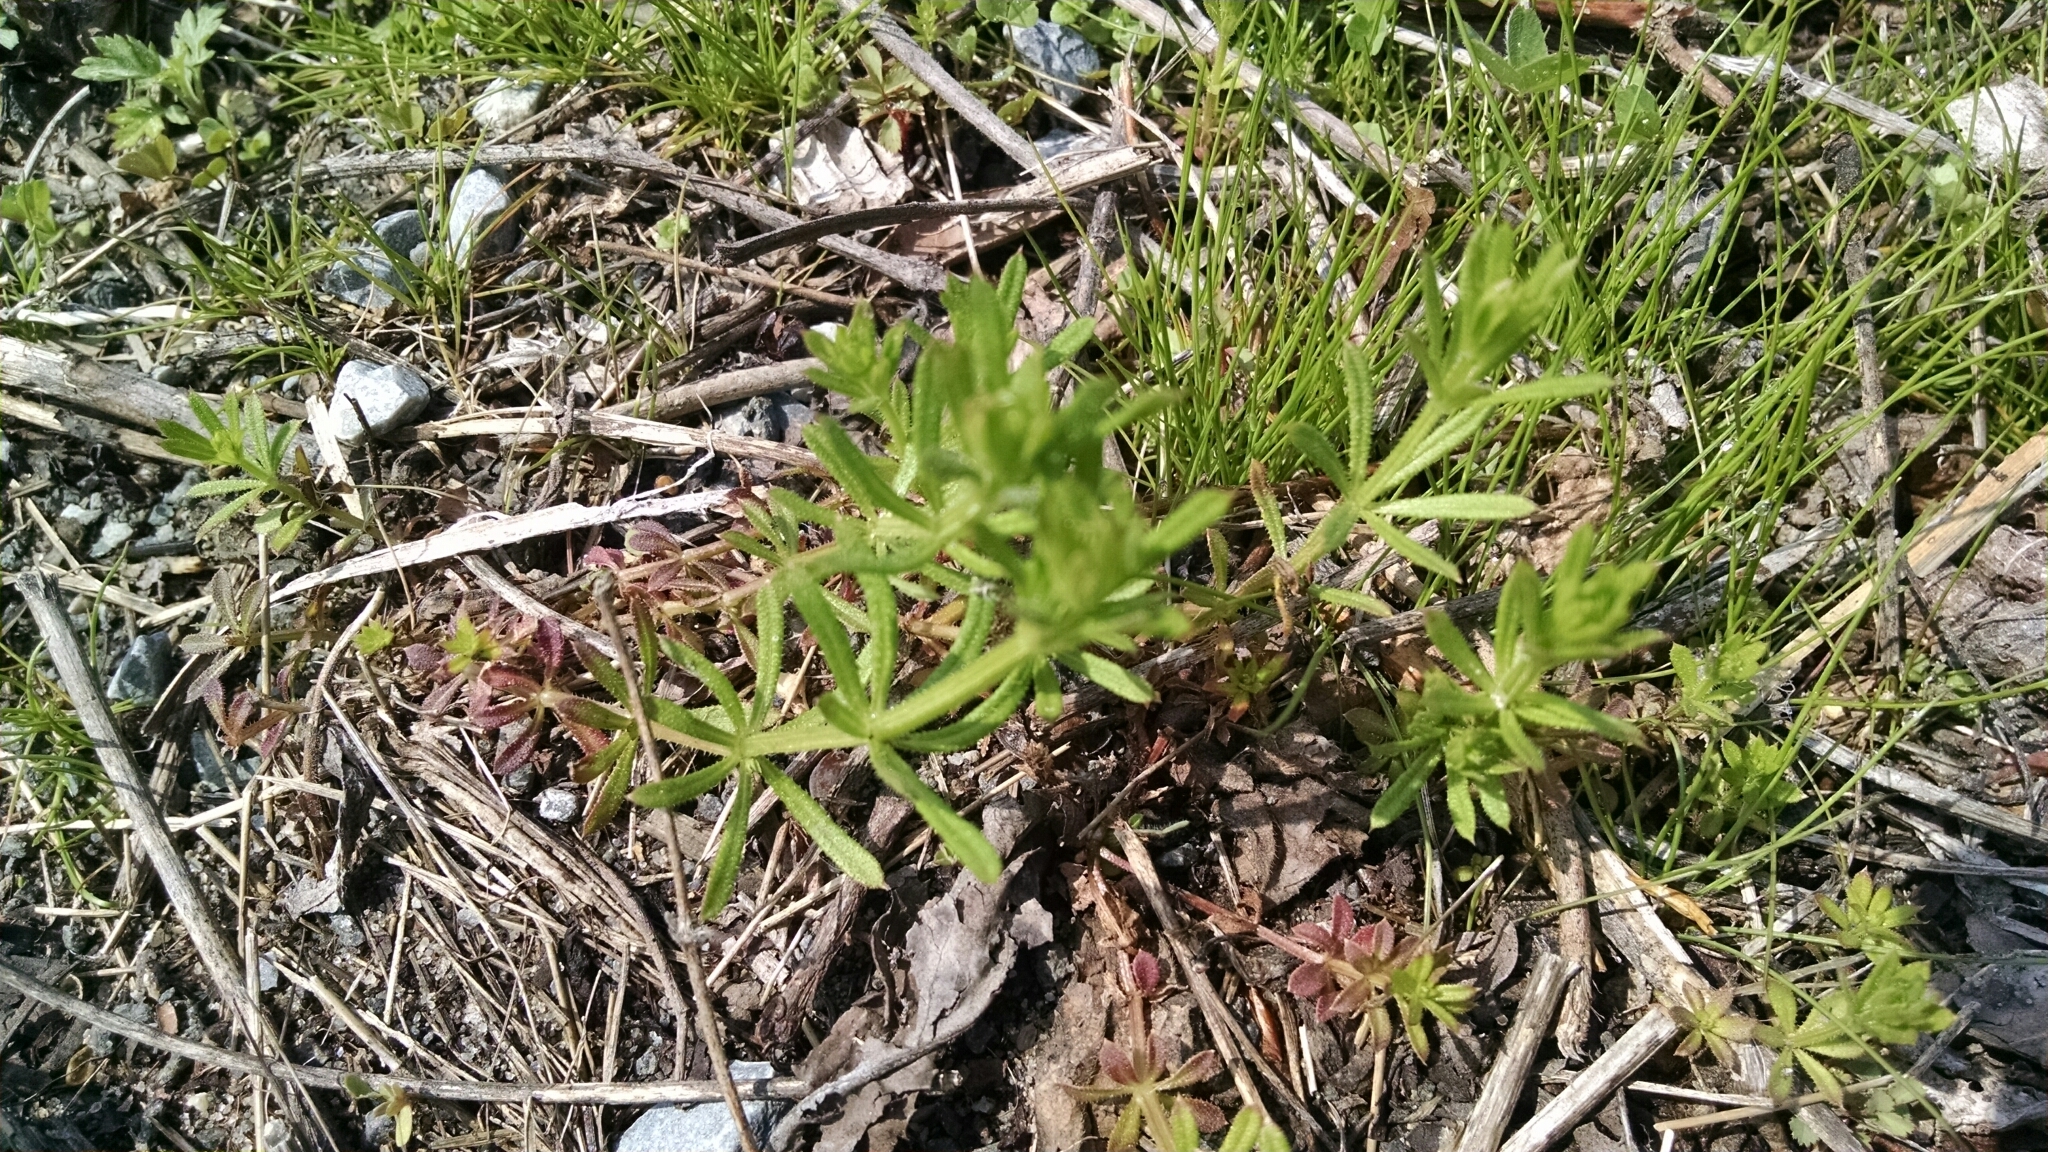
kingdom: Plantae
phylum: Tracheophyta
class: Magnoliopsida
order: Gentianales
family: Rubiaceae
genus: Galium
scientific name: Galium aparine
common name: Cleavers
